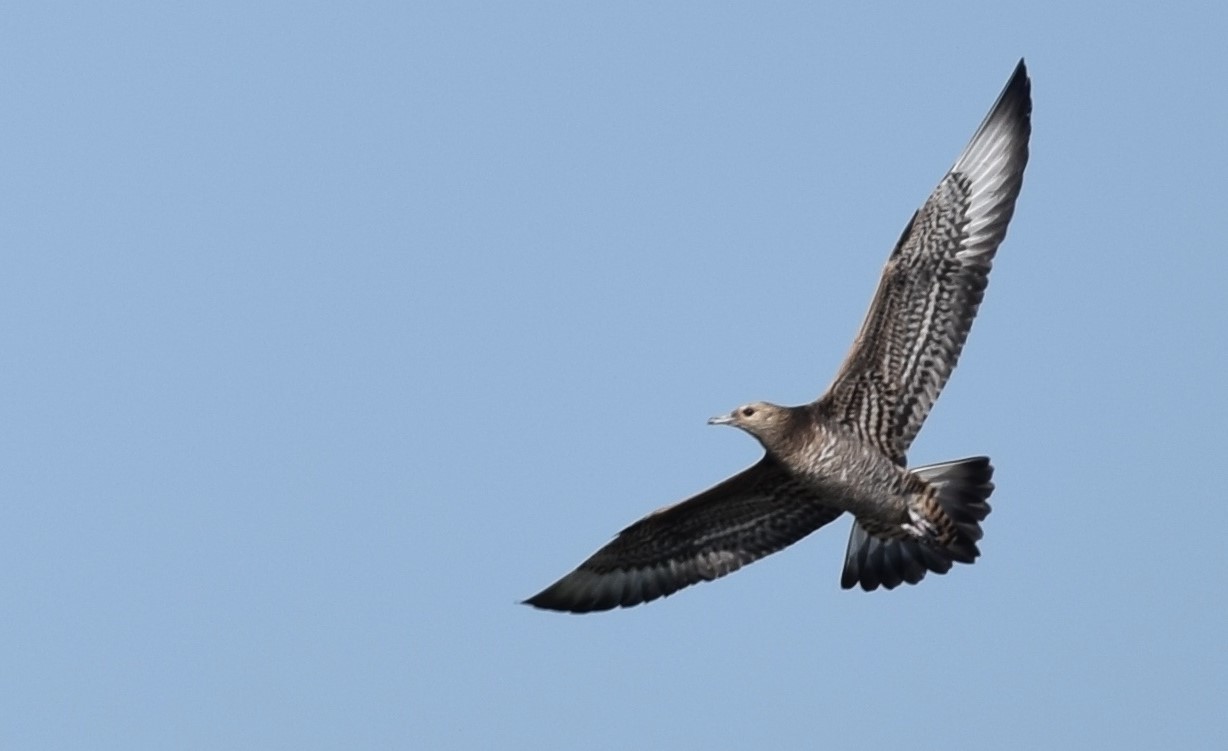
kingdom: Animalia
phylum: Chordata
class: Aves
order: Charadriiformes
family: Stercorariidae
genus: Stercorarius
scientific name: Stercorarius parasiticus
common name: Parasitic jaeger
